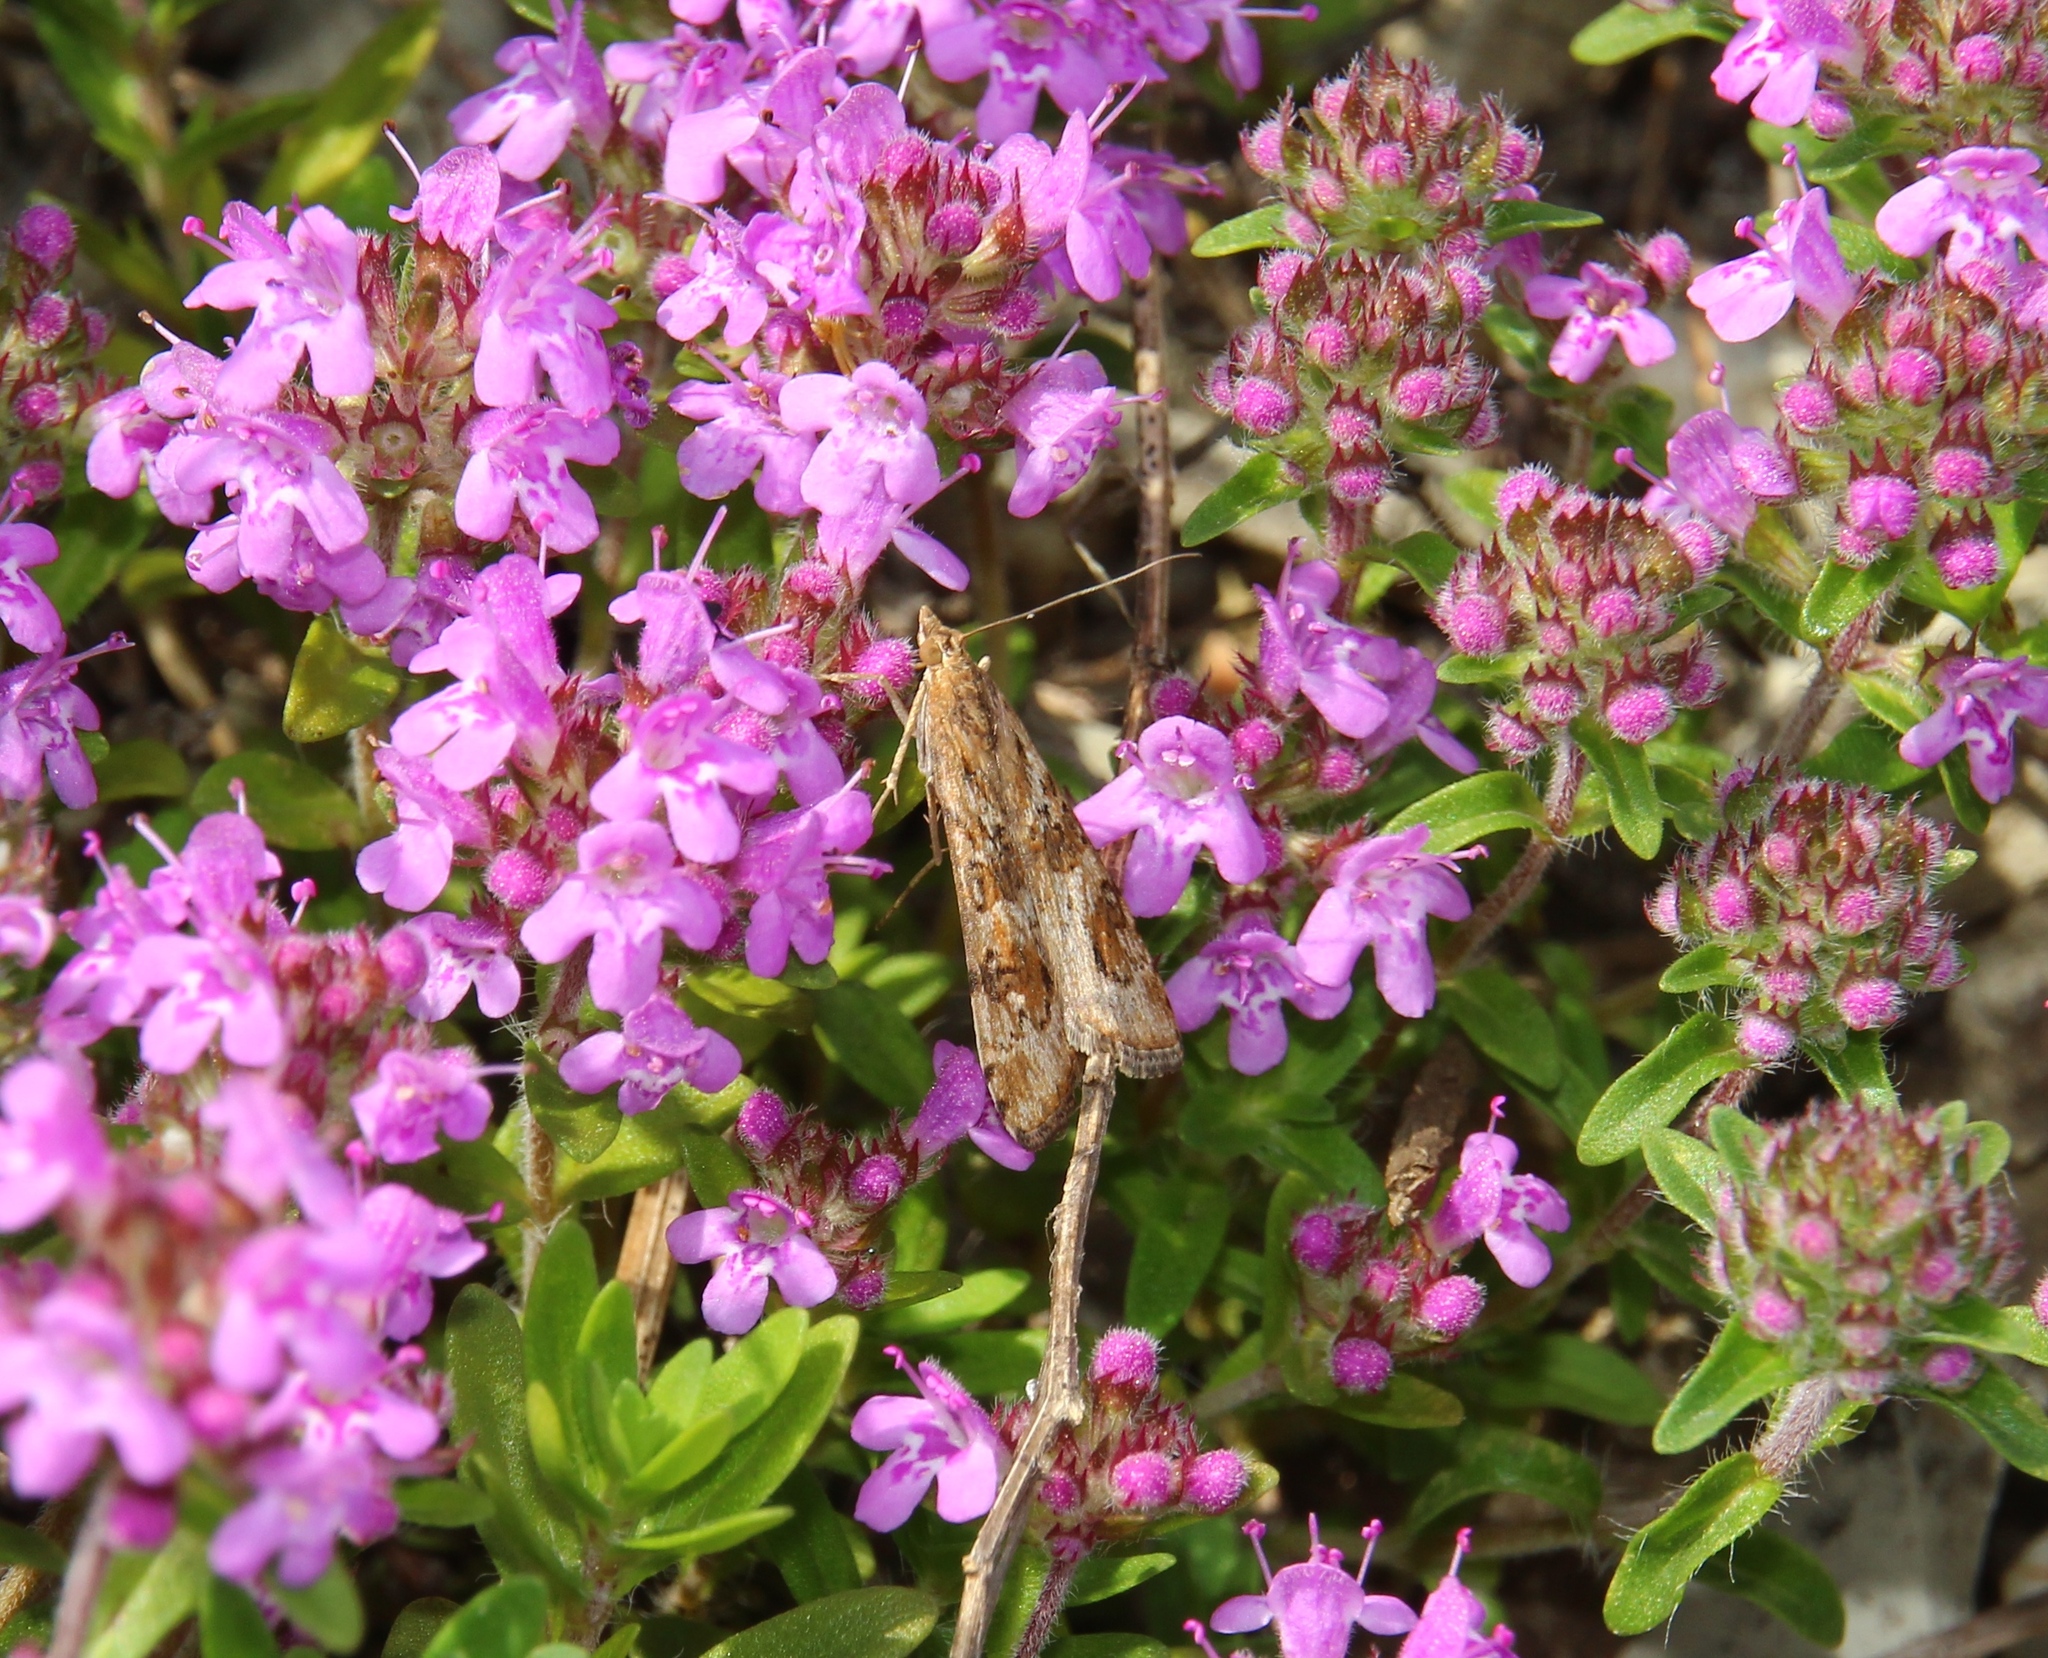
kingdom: Animalia
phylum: Arthropoda
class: Insecta
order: Lepidoptera
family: Crambidae
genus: Nomophila
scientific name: Nomophila noctuella
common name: Rush veneer
